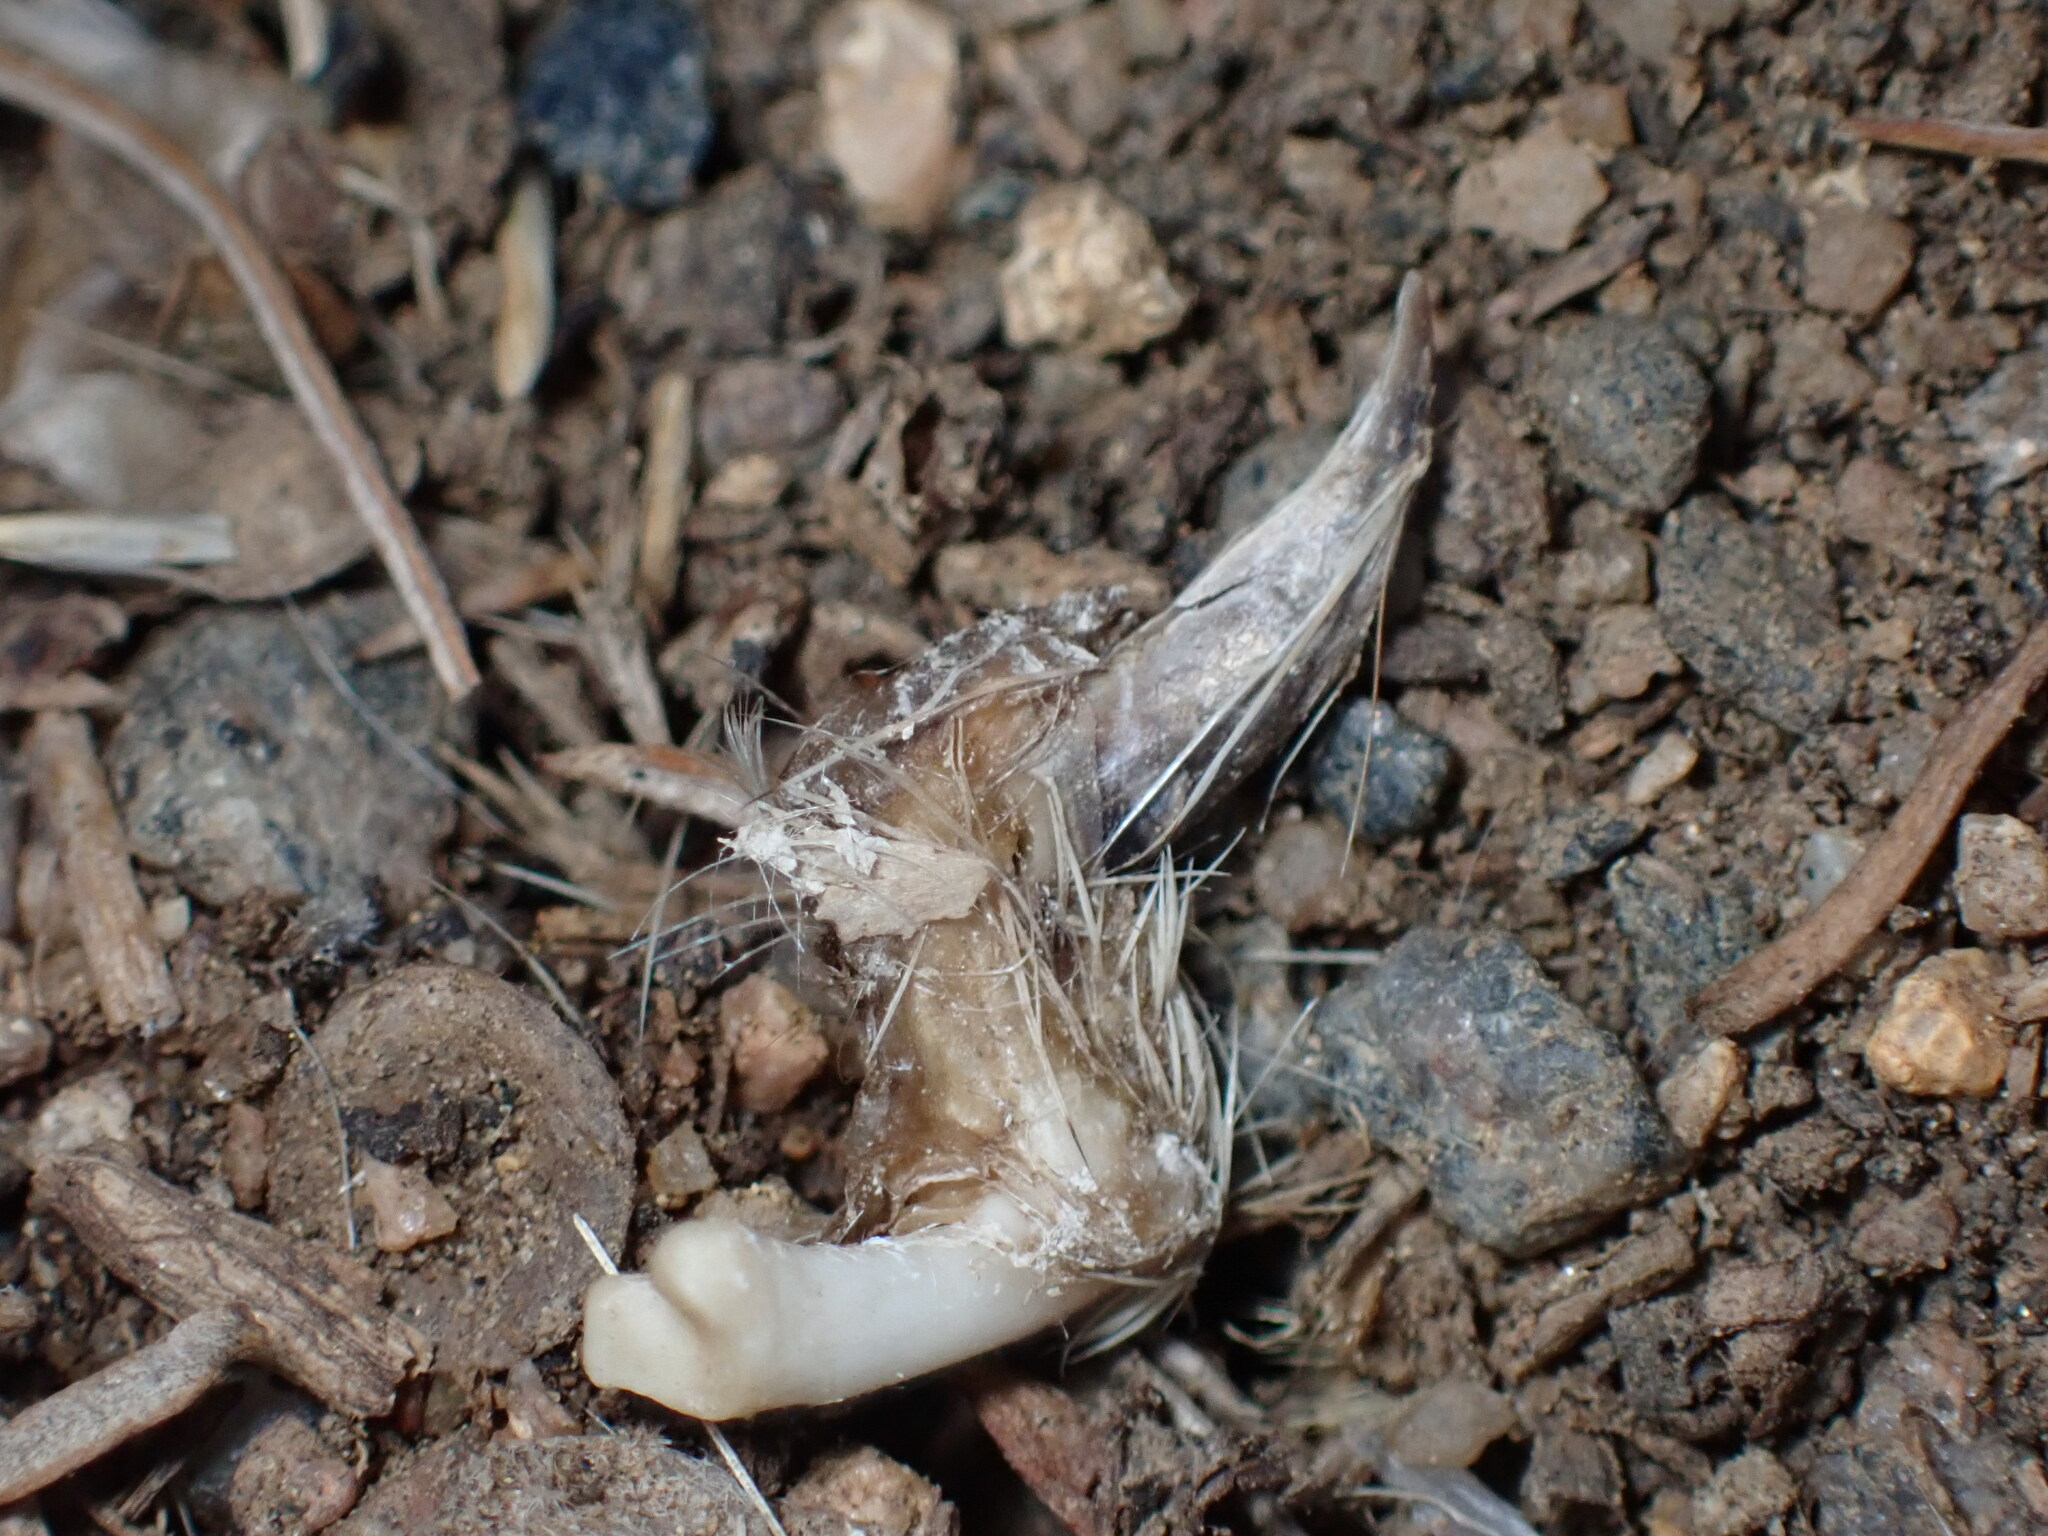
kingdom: Animalia
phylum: Chordata
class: Mammalia
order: Rodentia
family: Sciuridae
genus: Cynomys
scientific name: Cynomys ludovicianus
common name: Black-tailed prairie dog
